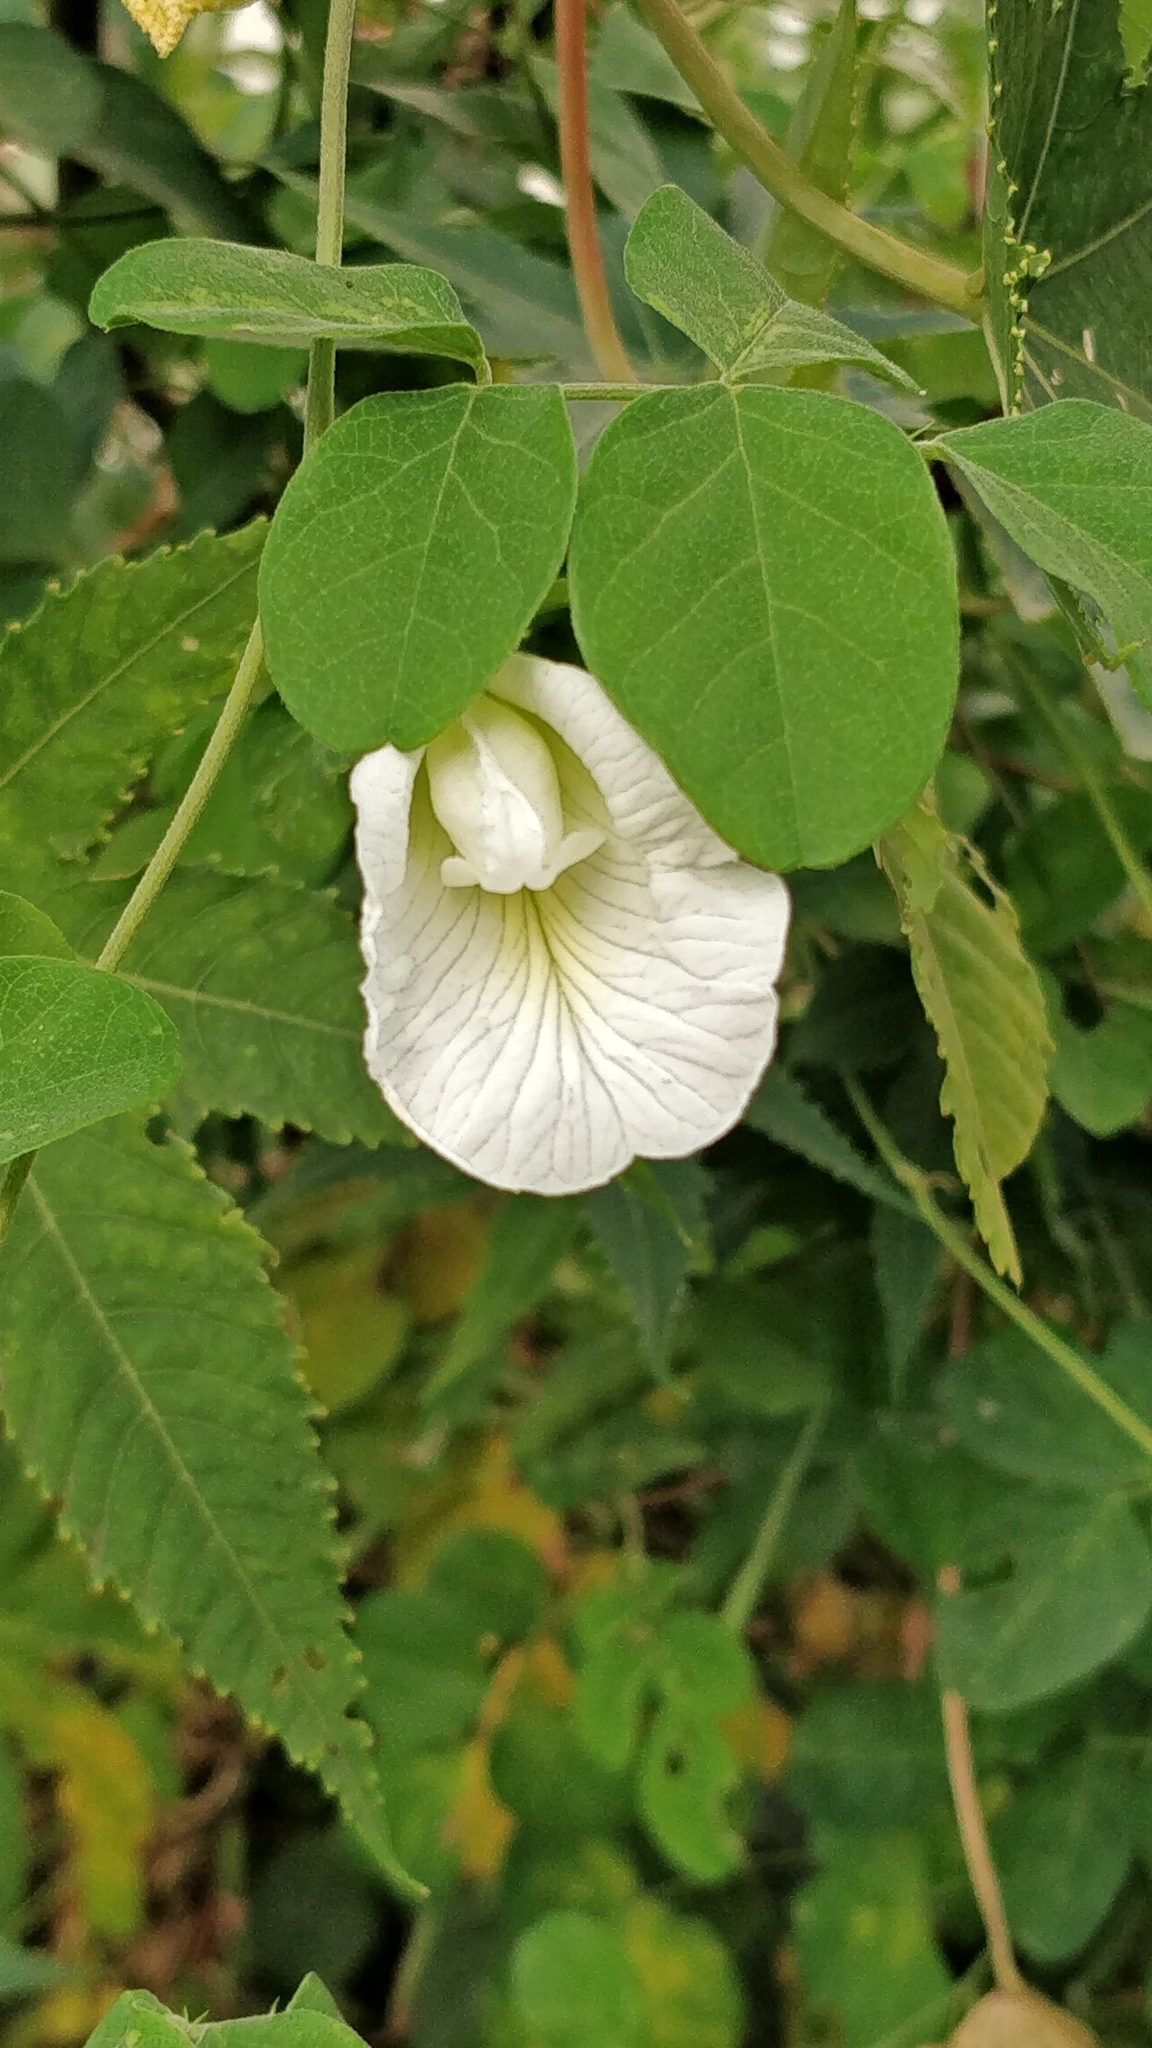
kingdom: Plantae
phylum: Tracheophyta
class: Magnoliopsida
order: Fabales
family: Fabaceae
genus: Clitoria
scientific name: Clitoria ternatea
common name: Asian pigeonwings
